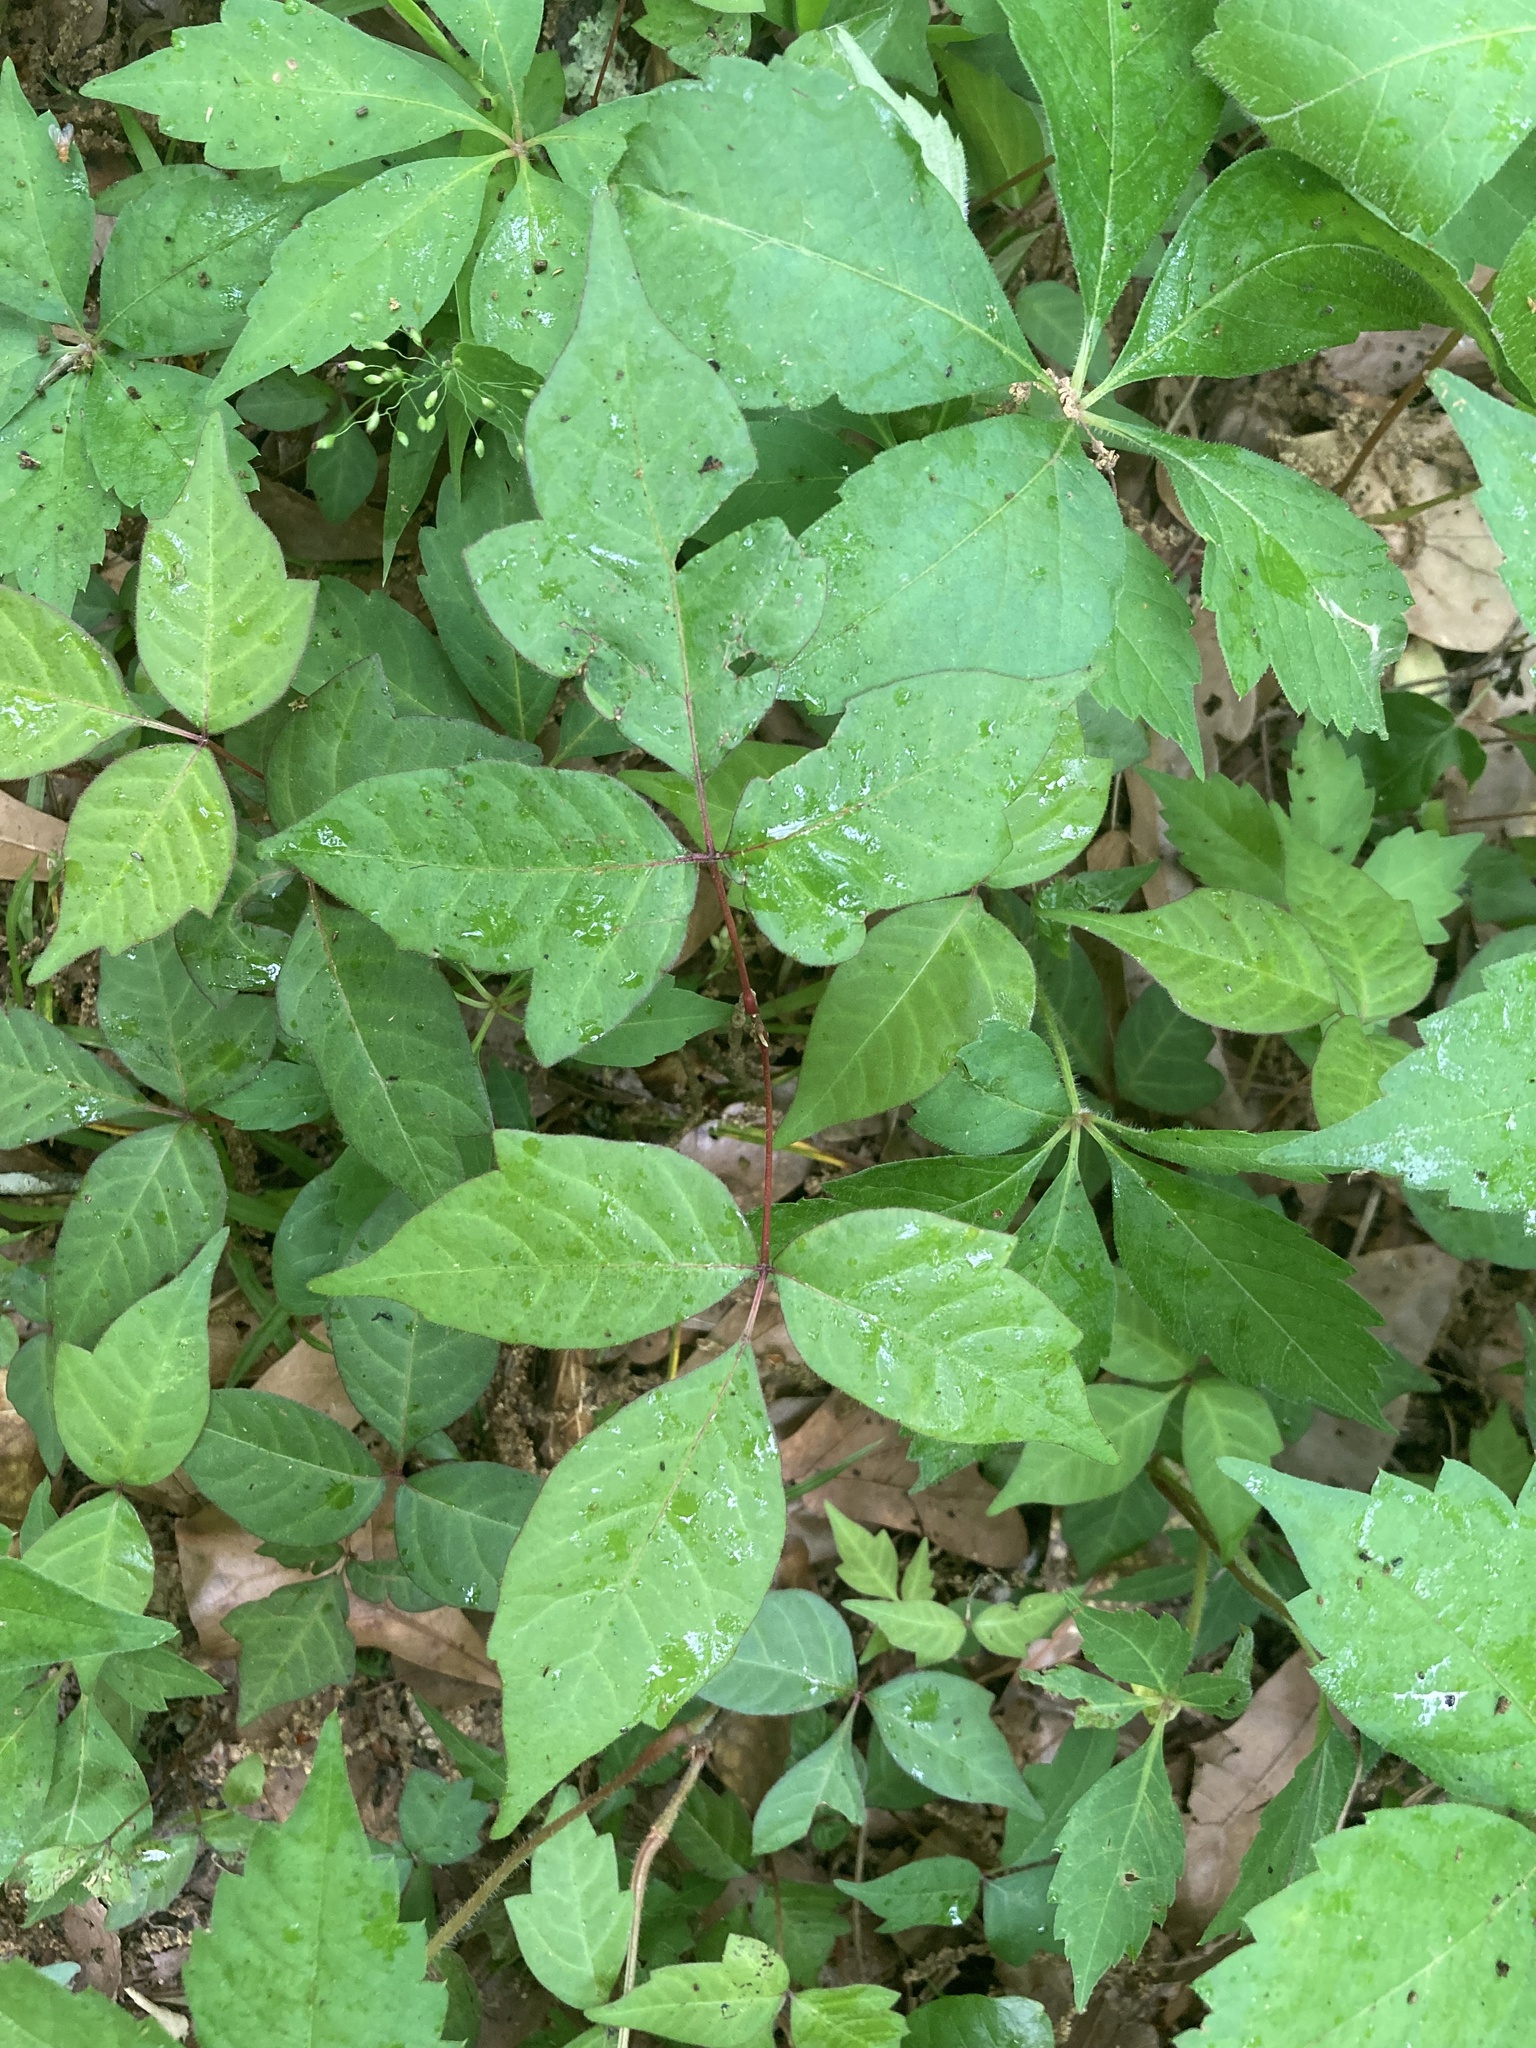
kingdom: Plantae
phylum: Tracheophyta
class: Magnoliopsida
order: Sapindales
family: Anacardiaceae
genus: Toxicodendron
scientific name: Toxicodendron radicans
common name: Poison ivy
